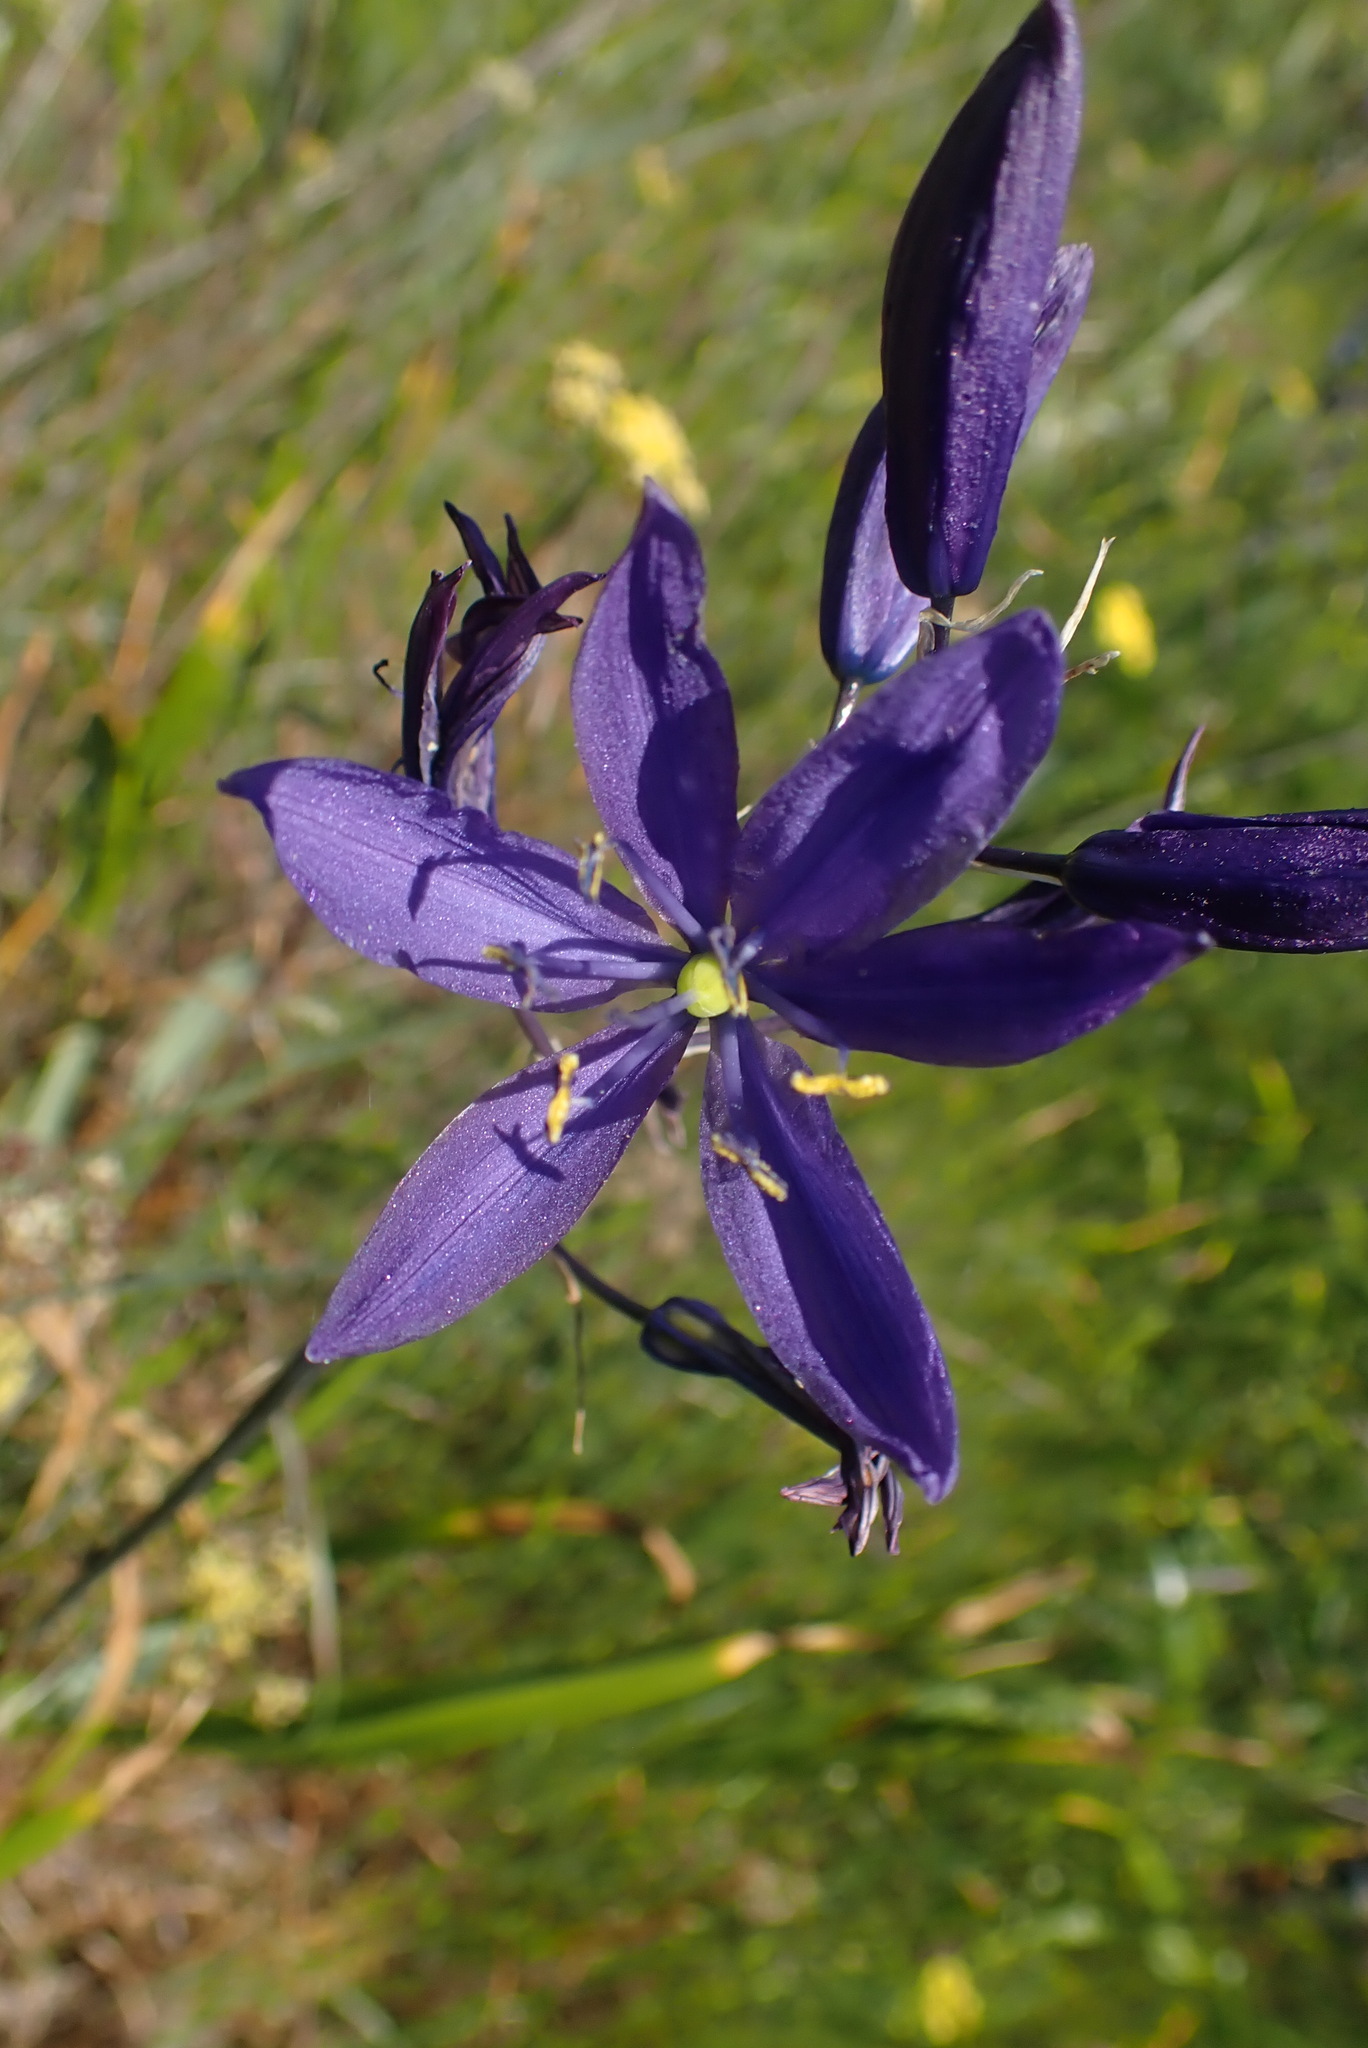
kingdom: Plantae
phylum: Tracheophyta
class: Liliopsida
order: Asparagales
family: Asparagaceae
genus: Camassia
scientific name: Camassia leichtlinii
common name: Leichtlin's camas
